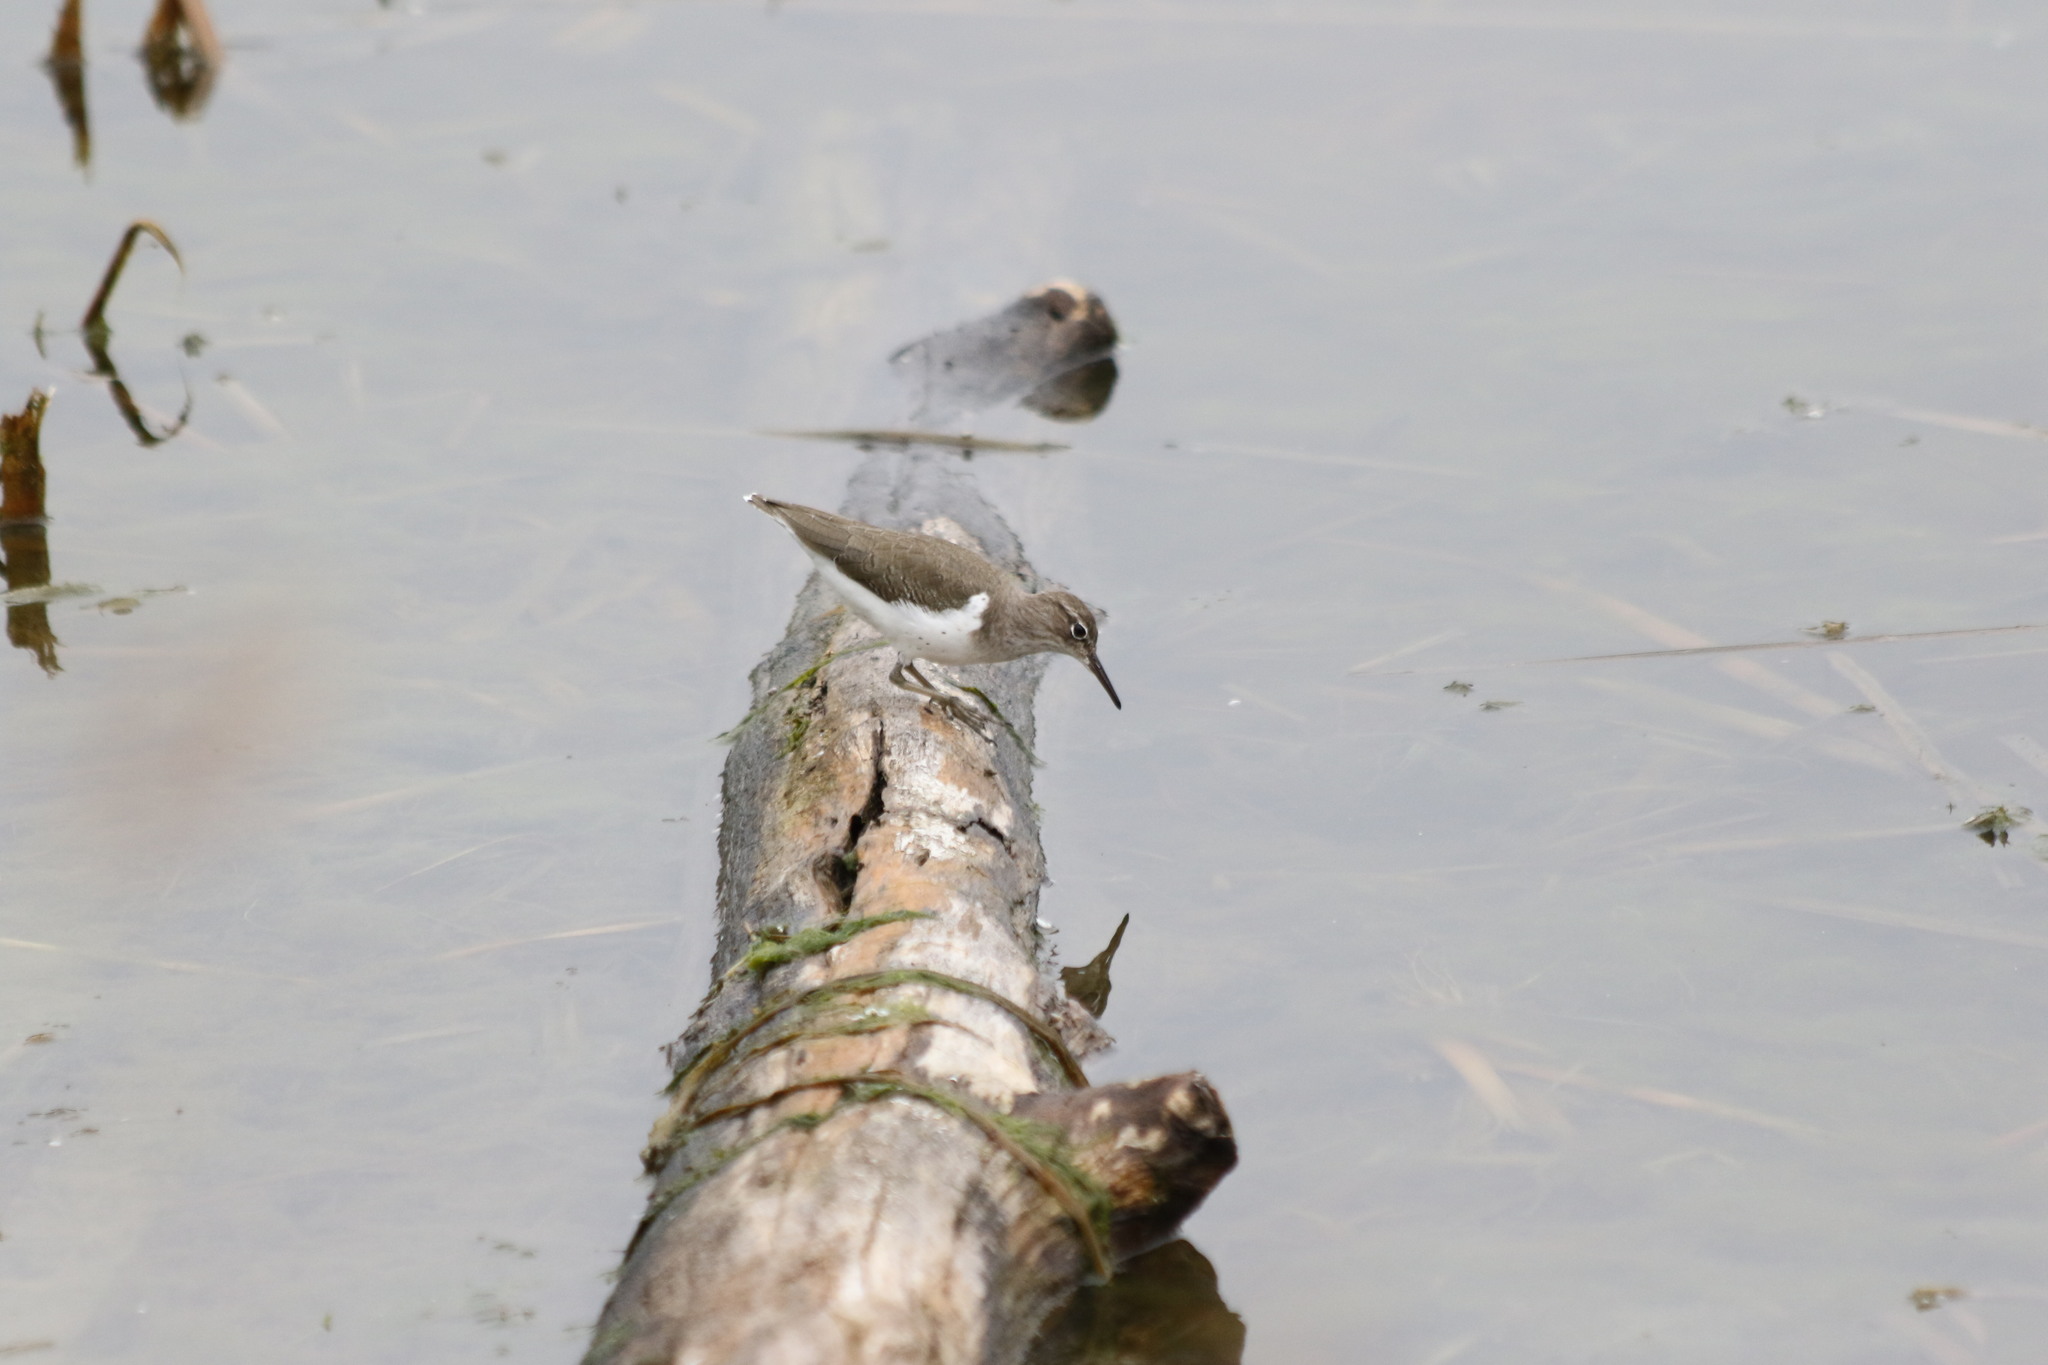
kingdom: Animalia
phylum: Chordata
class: Aves
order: Charadriiformes
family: Scolopacidae
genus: Actitis
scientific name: Actitis macularius
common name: Spotted sandpiper
